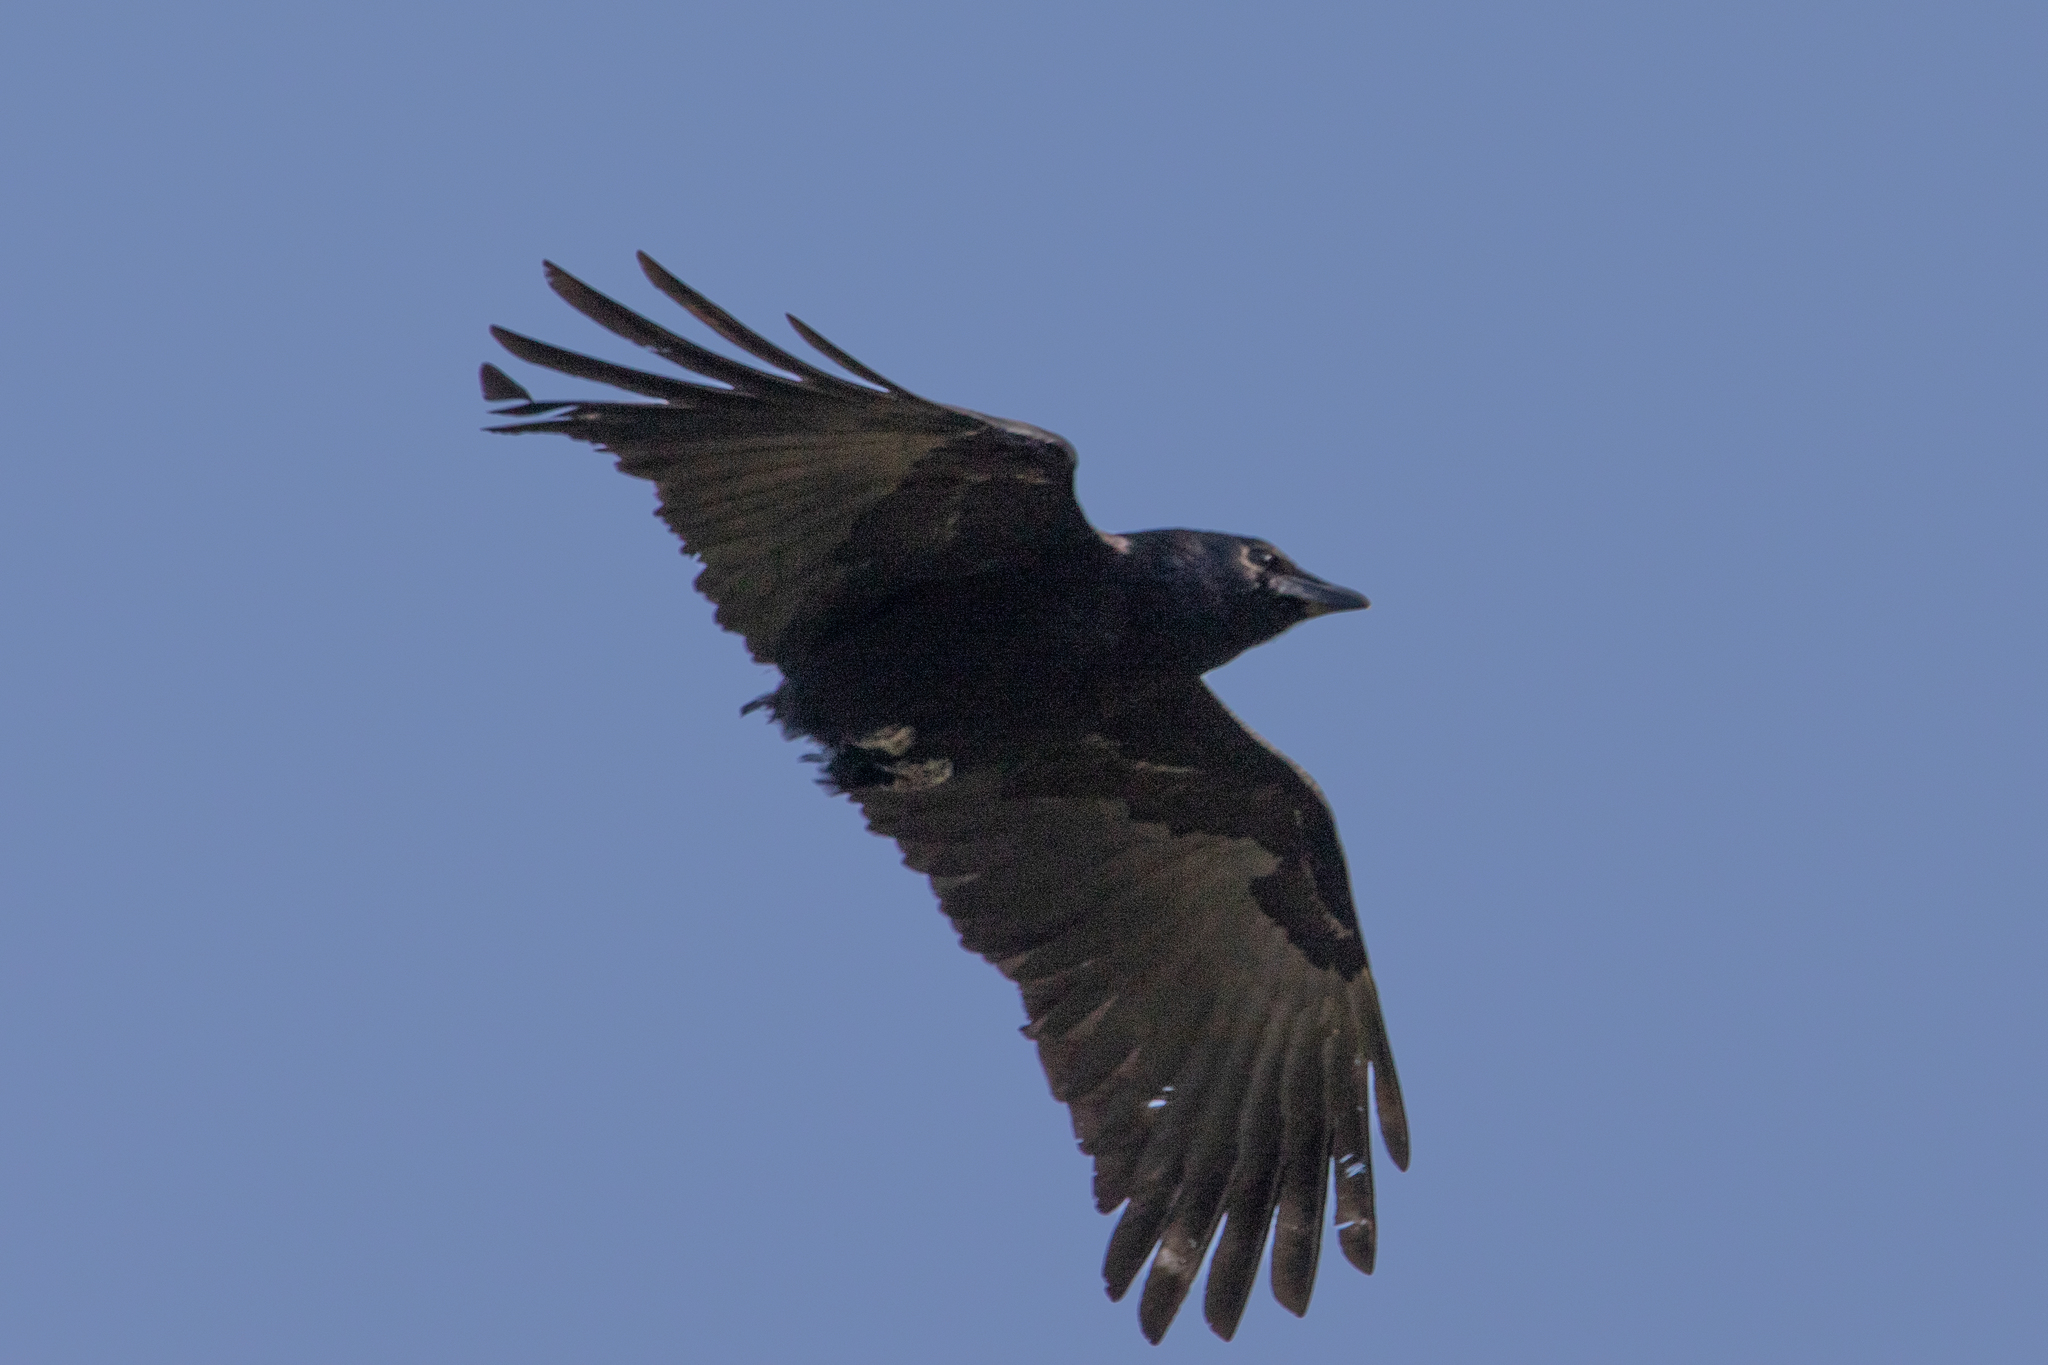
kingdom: Animalia
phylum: Chordata
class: Aves
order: Passeriformes
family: Corvidae
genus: Corvus
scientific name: Corvus corone
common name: Carrion crow
